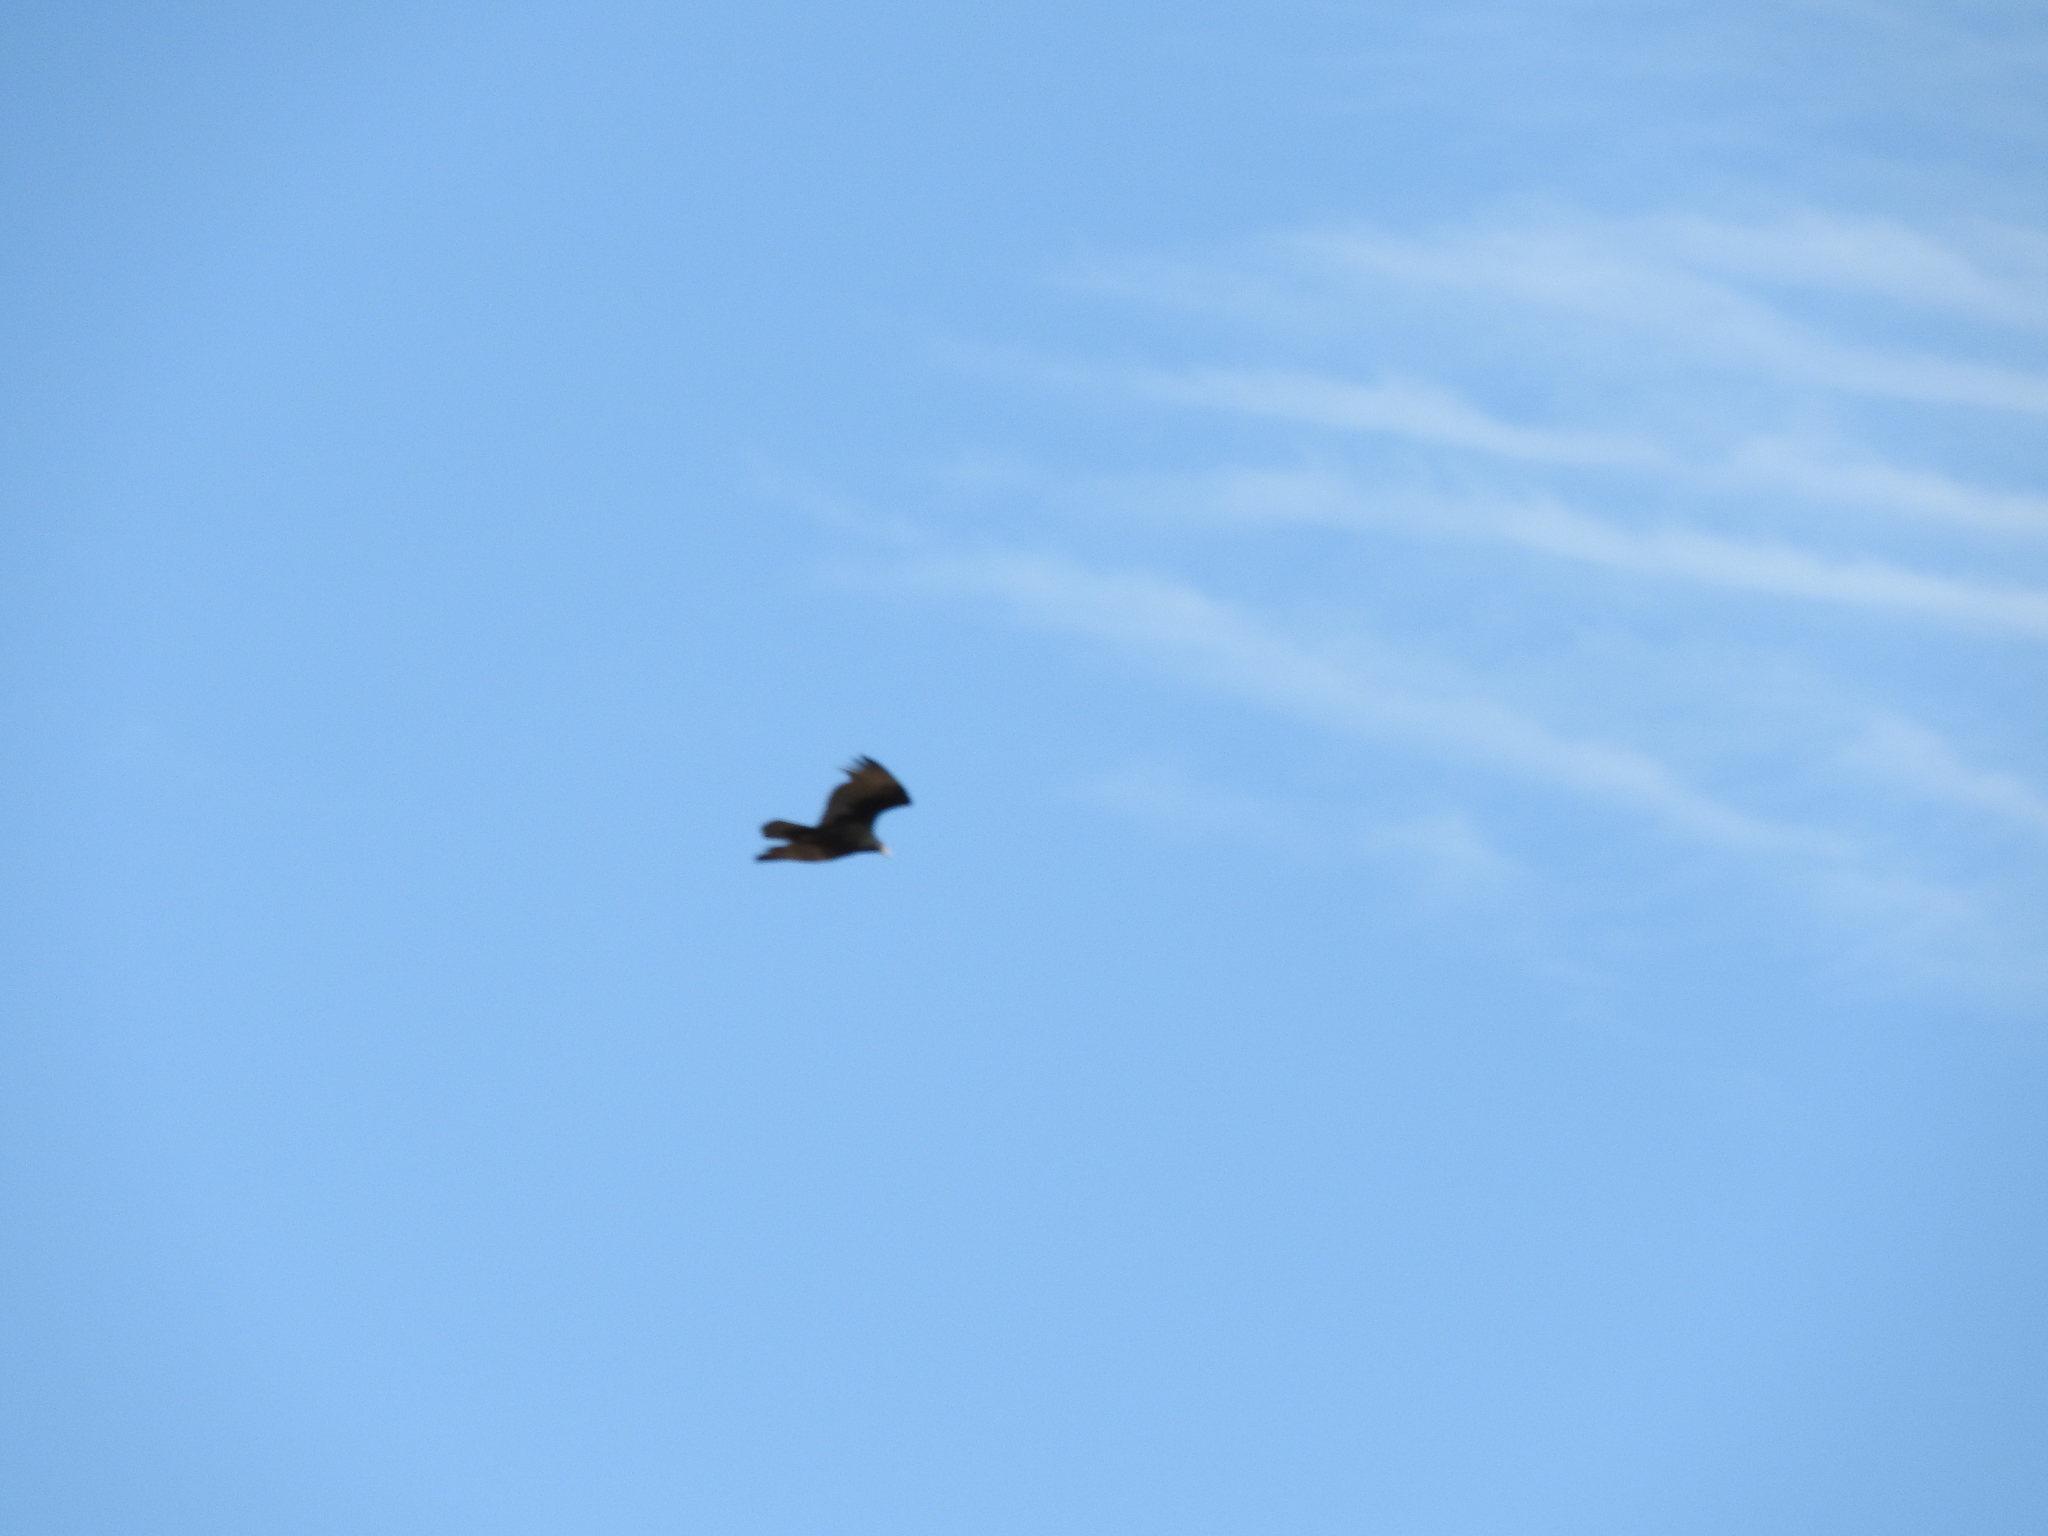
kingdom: Animalia
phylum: Chordata
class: Aves
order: Accipitriformes
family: Cathartidae
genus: Cathartes
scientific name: Cathartes aura
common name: Turkey vulture
